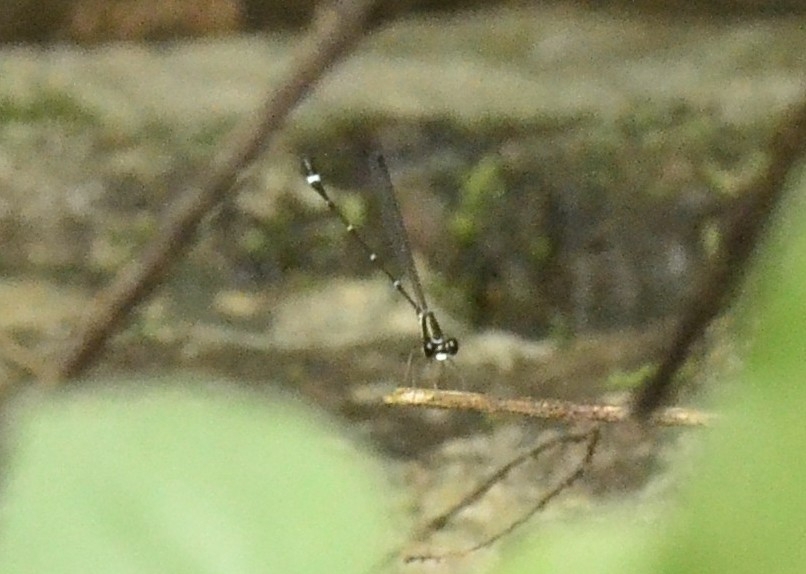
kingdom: Animalia
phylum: Arthropoda
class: Insecta
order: Odonata
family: Platystictidae
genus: Protosticta
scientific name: Protosticta gravelyi
